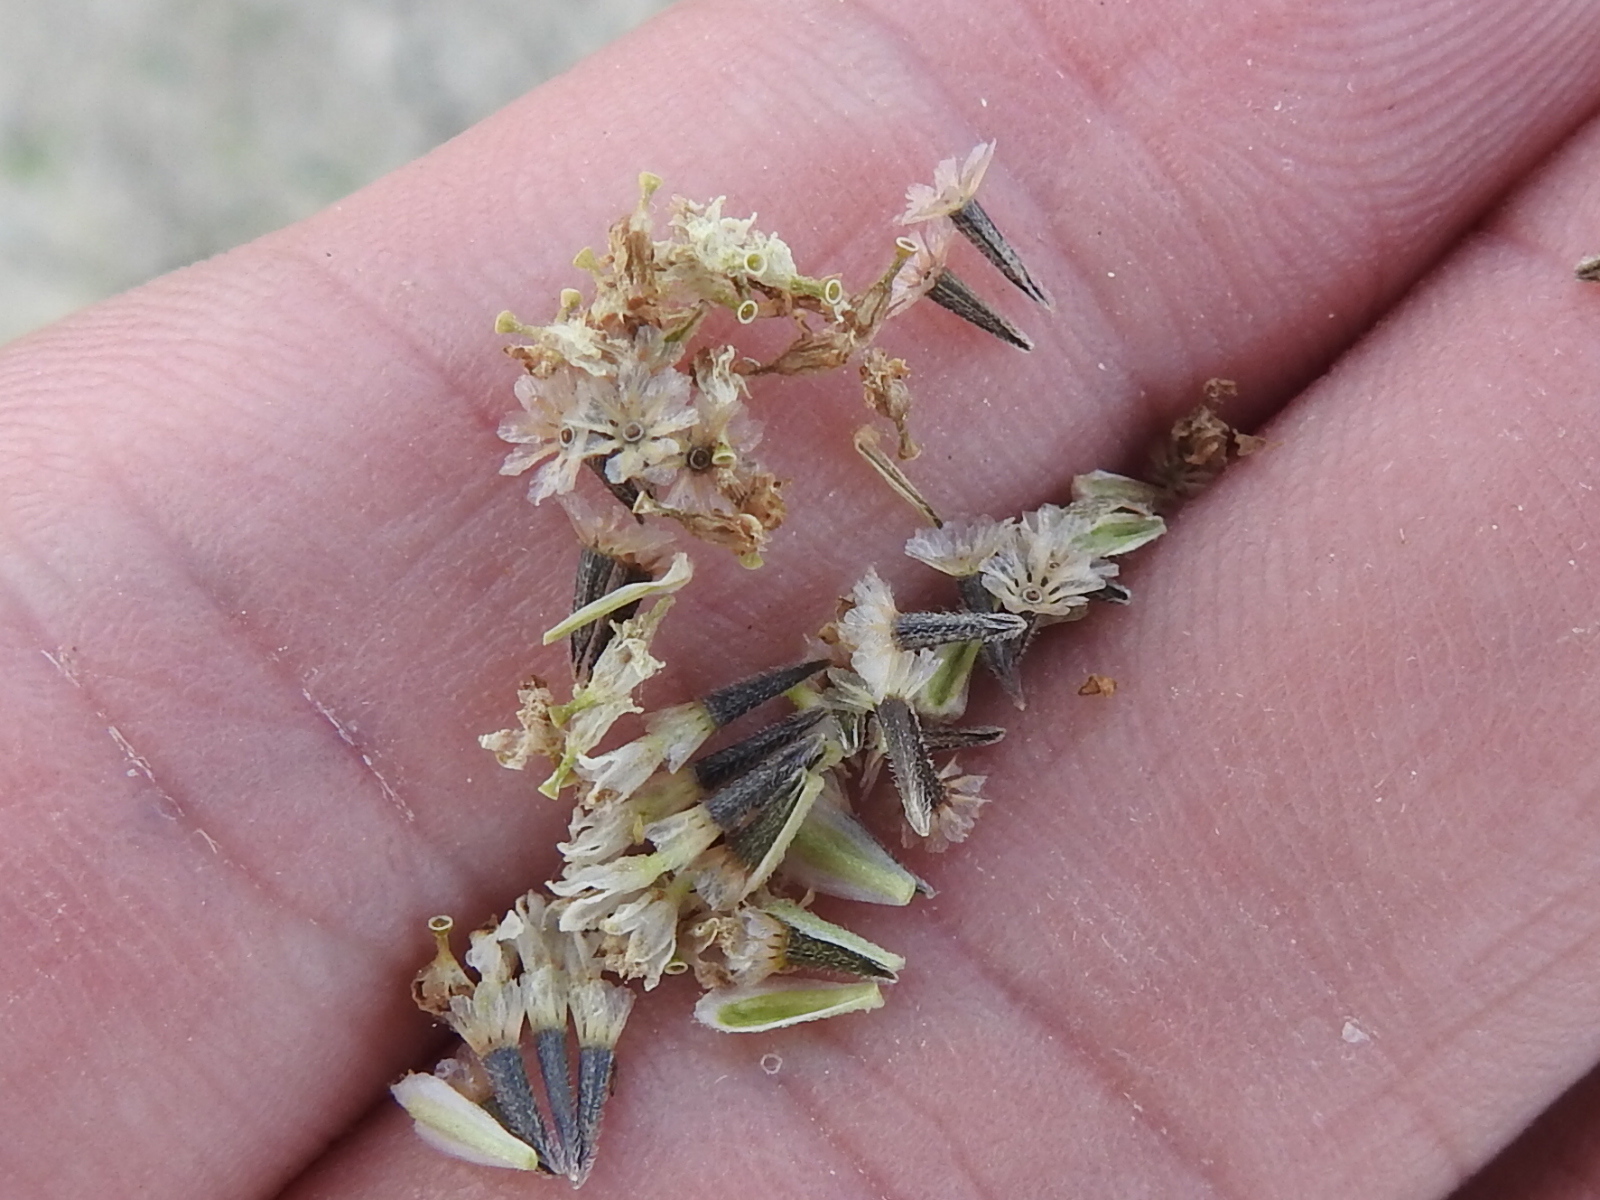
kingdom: Plantae
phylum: Tracheophyta
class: Magnoliopsida
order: Asterales
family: Asteraceae
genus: Florestina
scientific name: Florestina tripteris
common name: Sticky florestina
